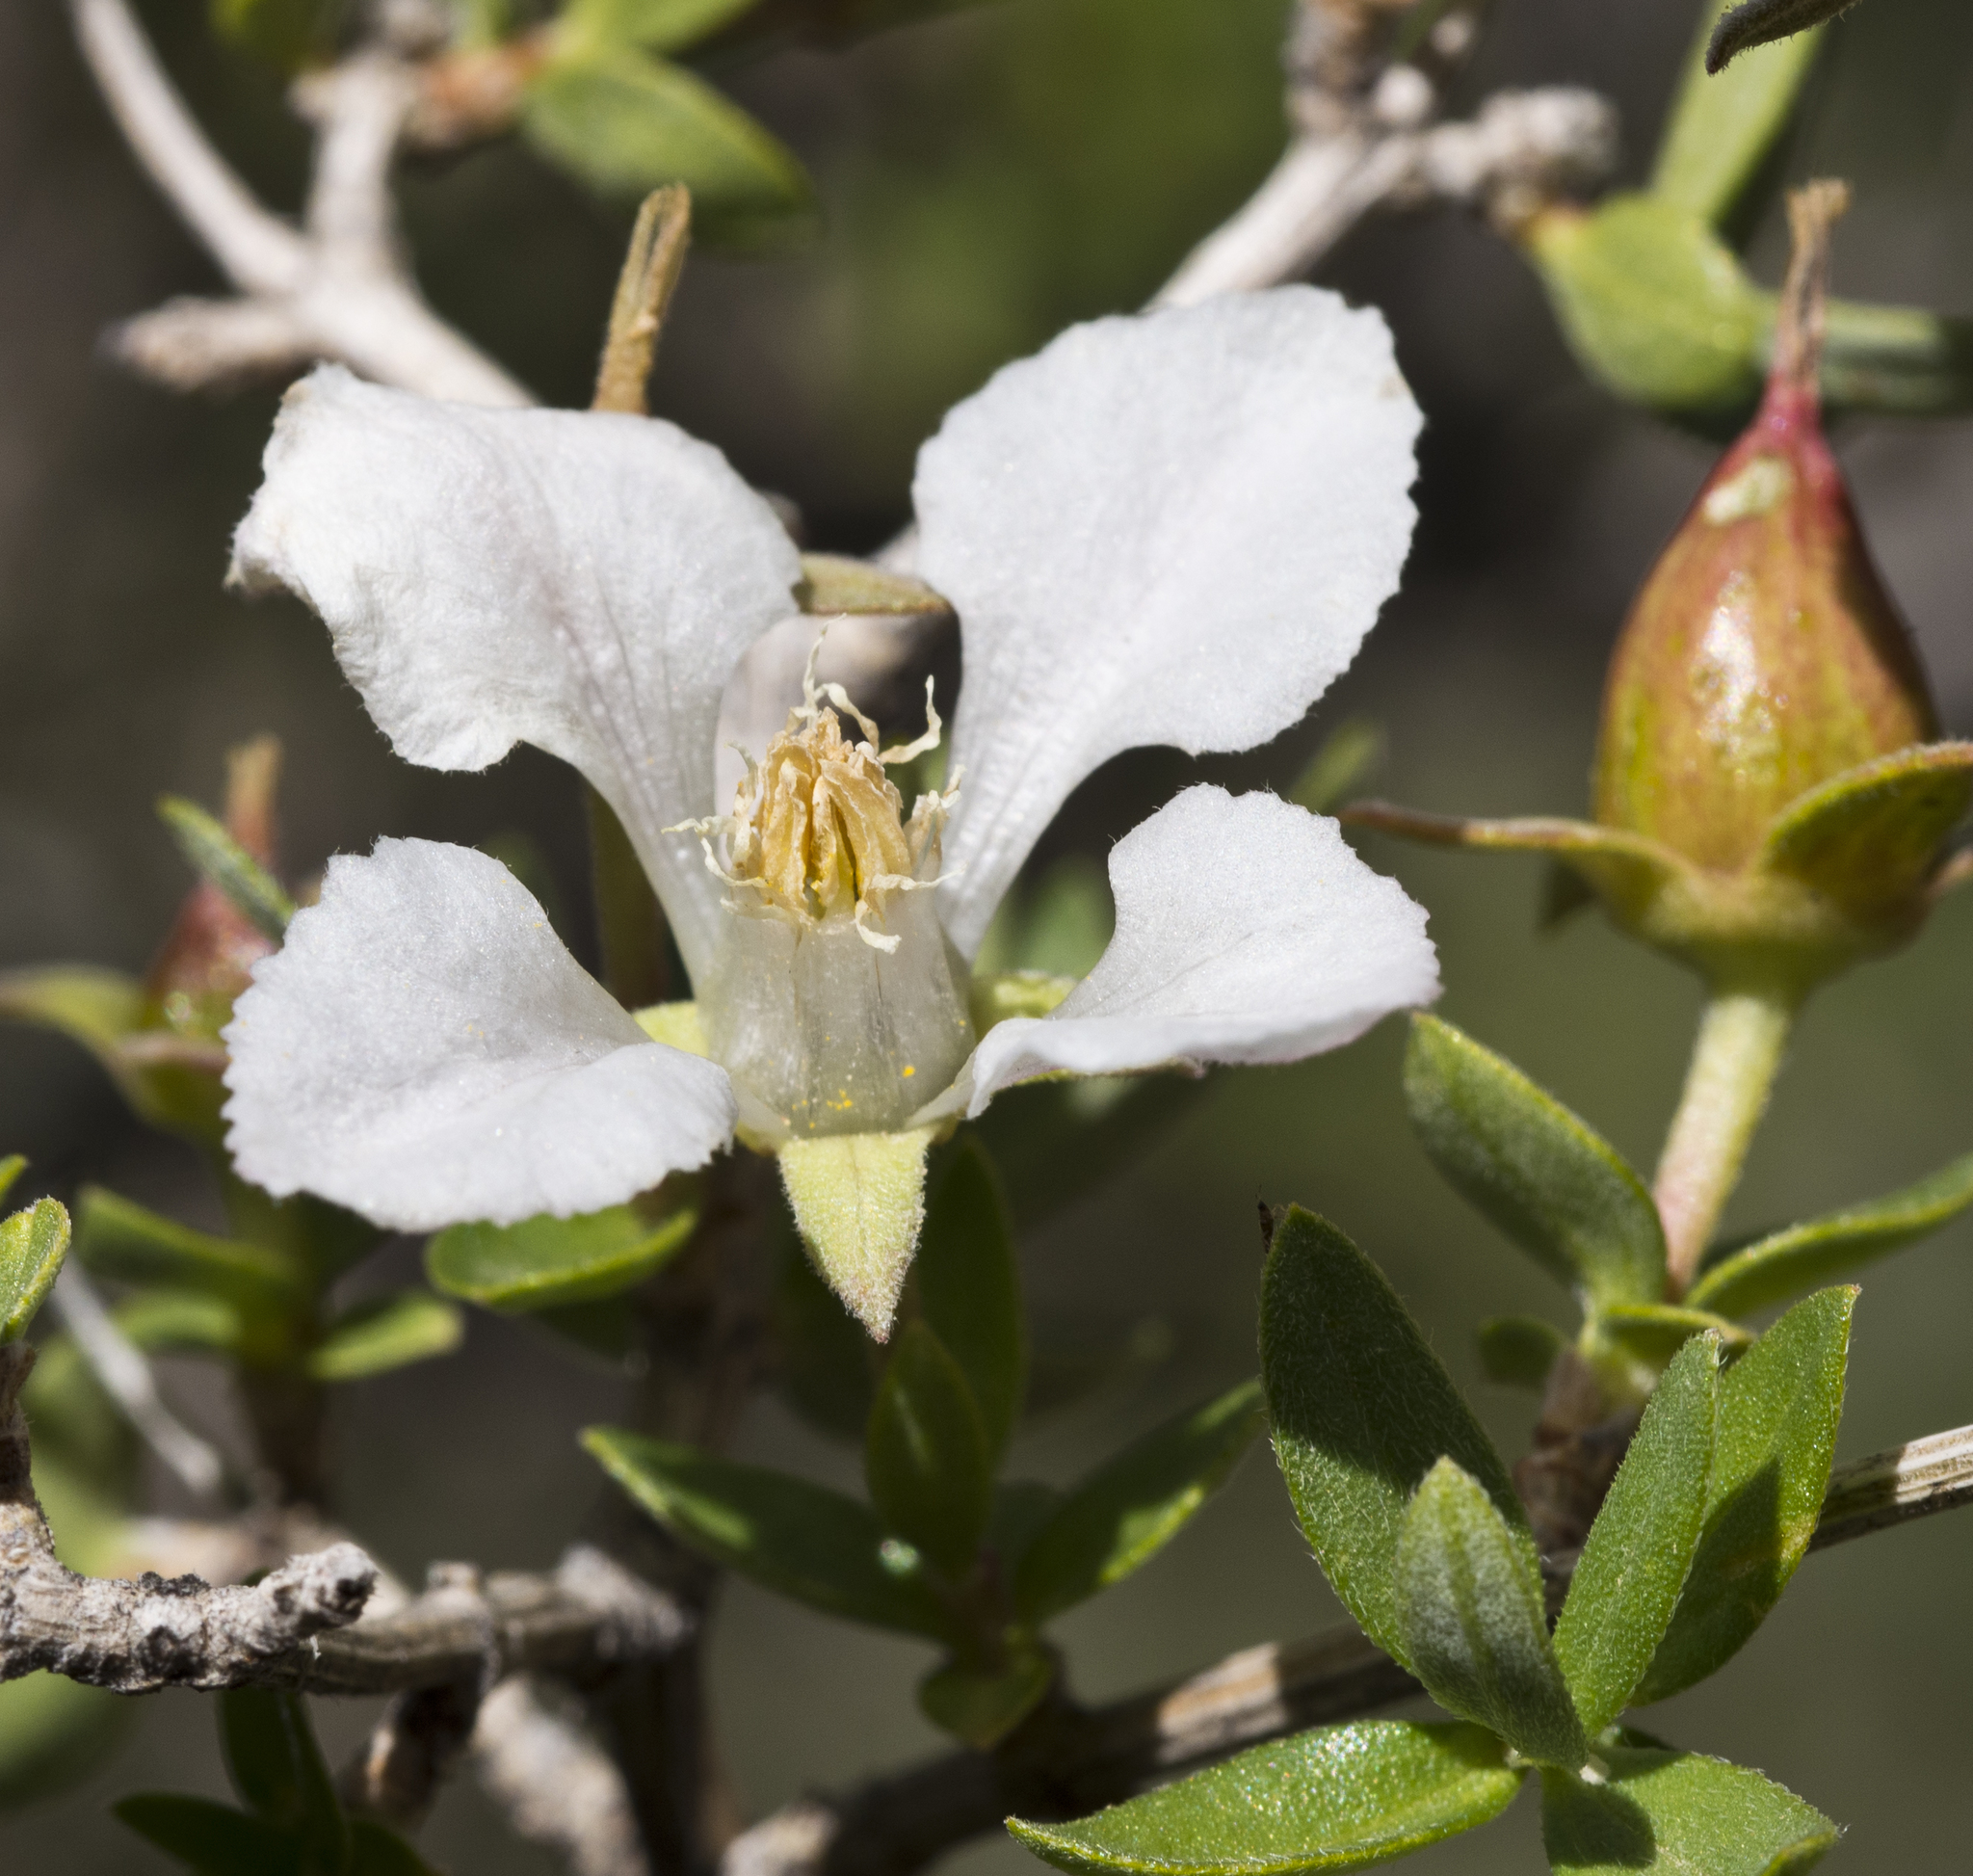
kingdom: Plantae
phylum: Tracheophyta
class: Magnoliopsida
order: Cornales
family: Hydrangeaceae
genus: Fendlera
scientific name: Fendlera rupicola
